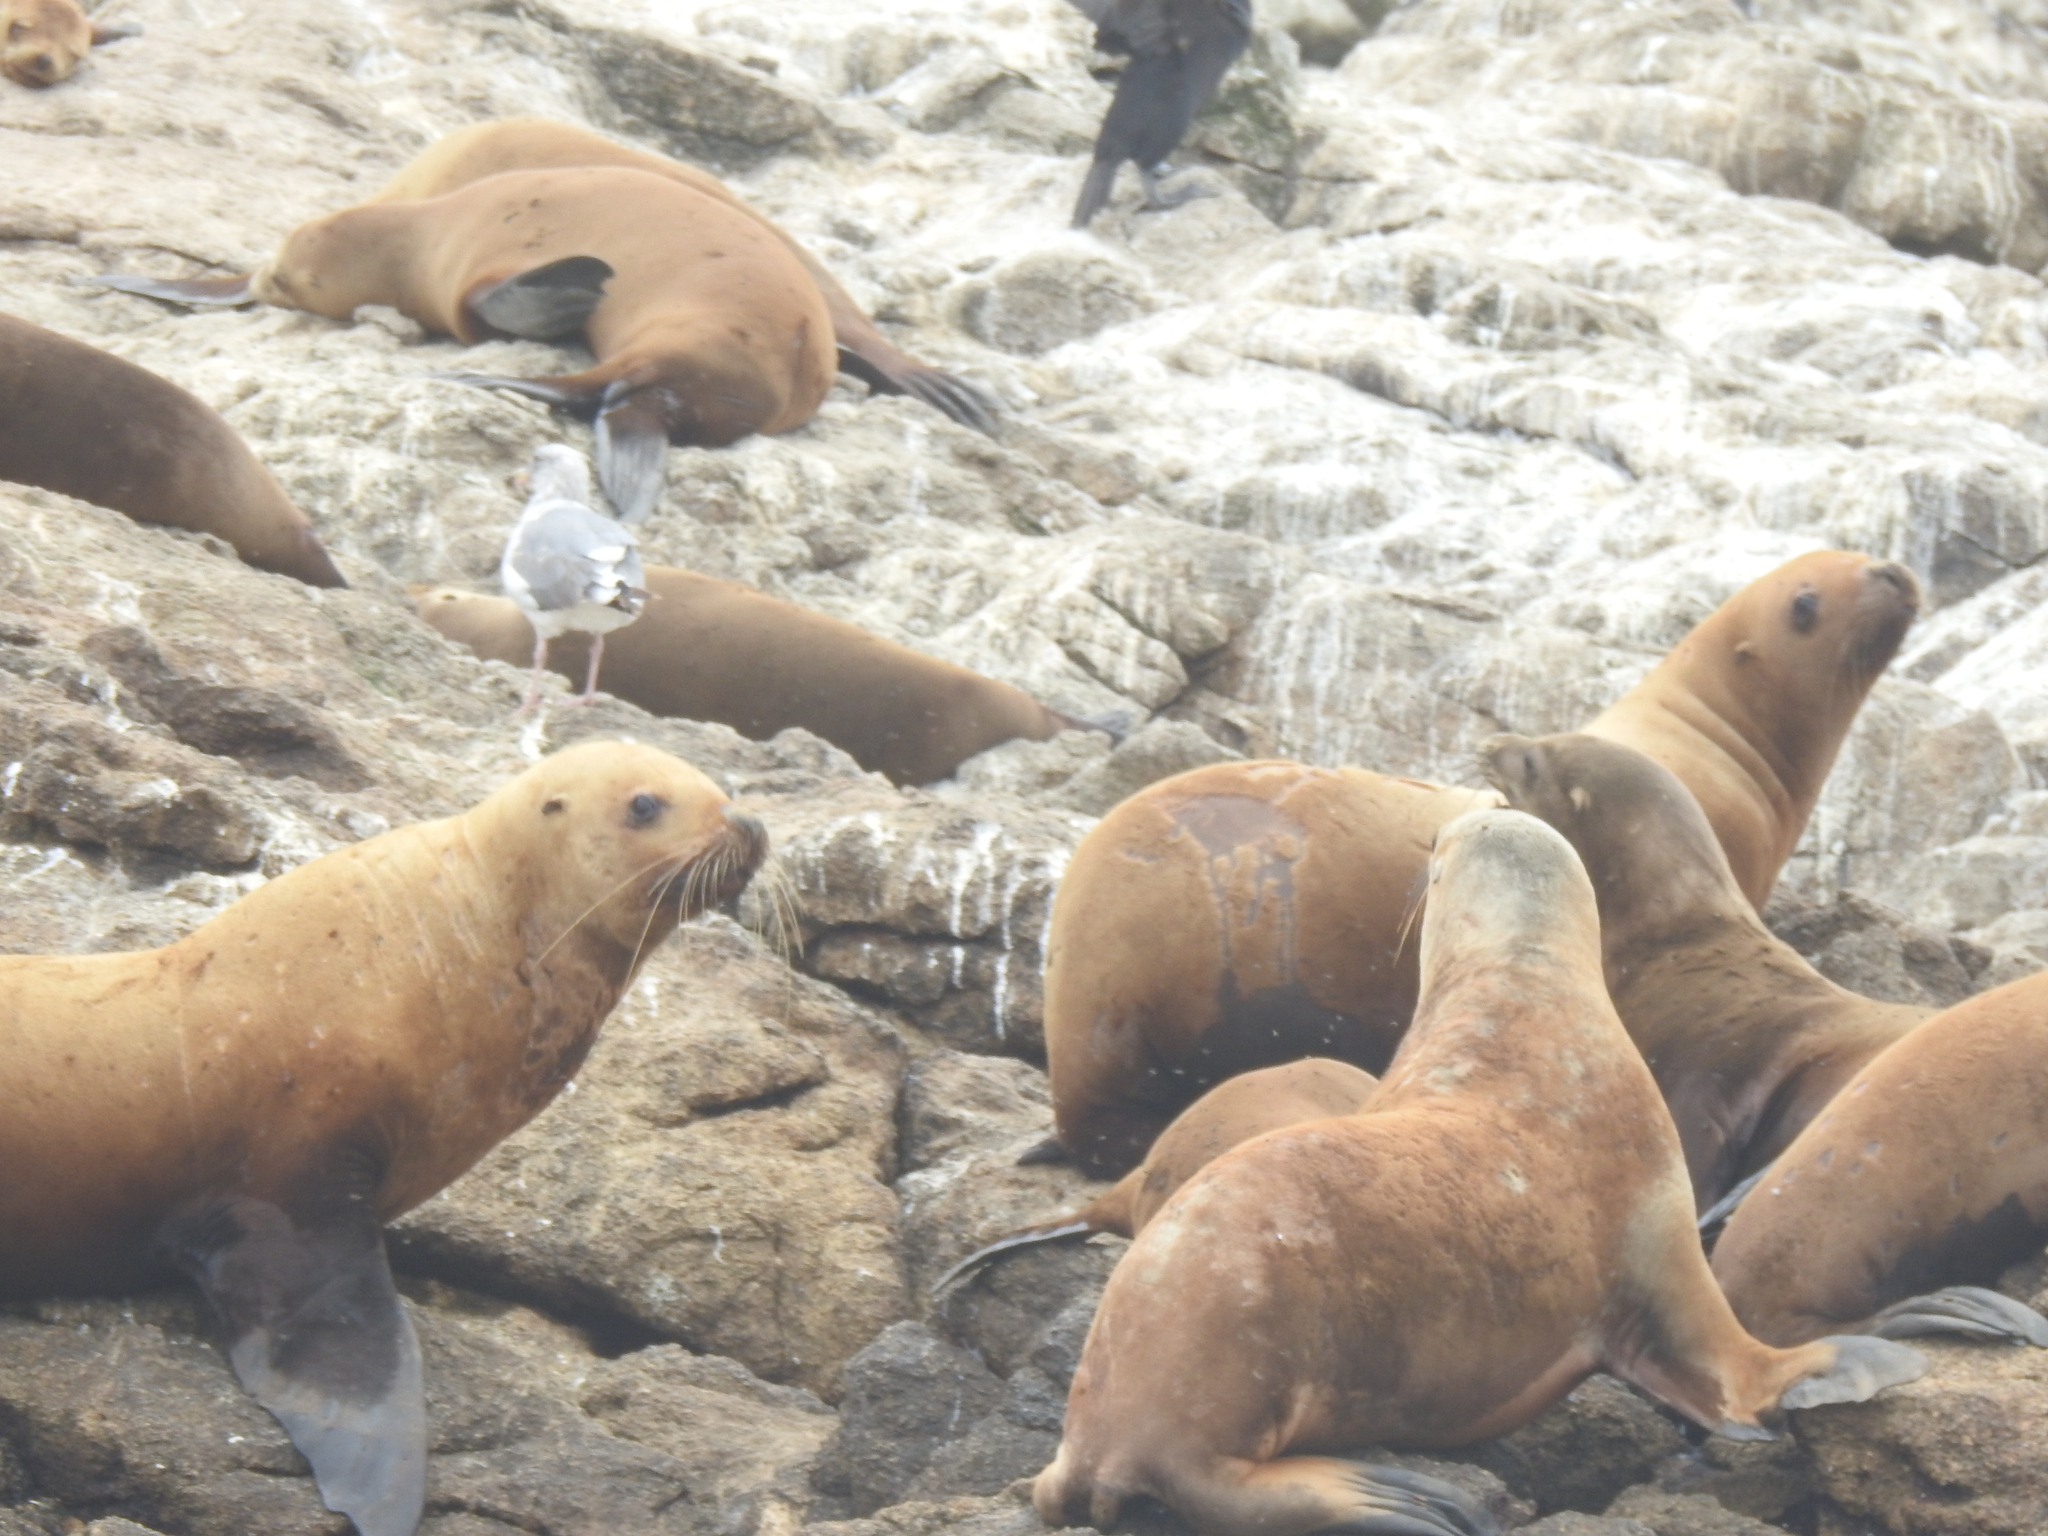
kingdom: Animalia
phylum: Chordata
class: Mammalia
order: Carnivora
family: Otariidae
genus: Eumetopias
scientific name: Eumetopias jubatus
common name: Steller sea lion
